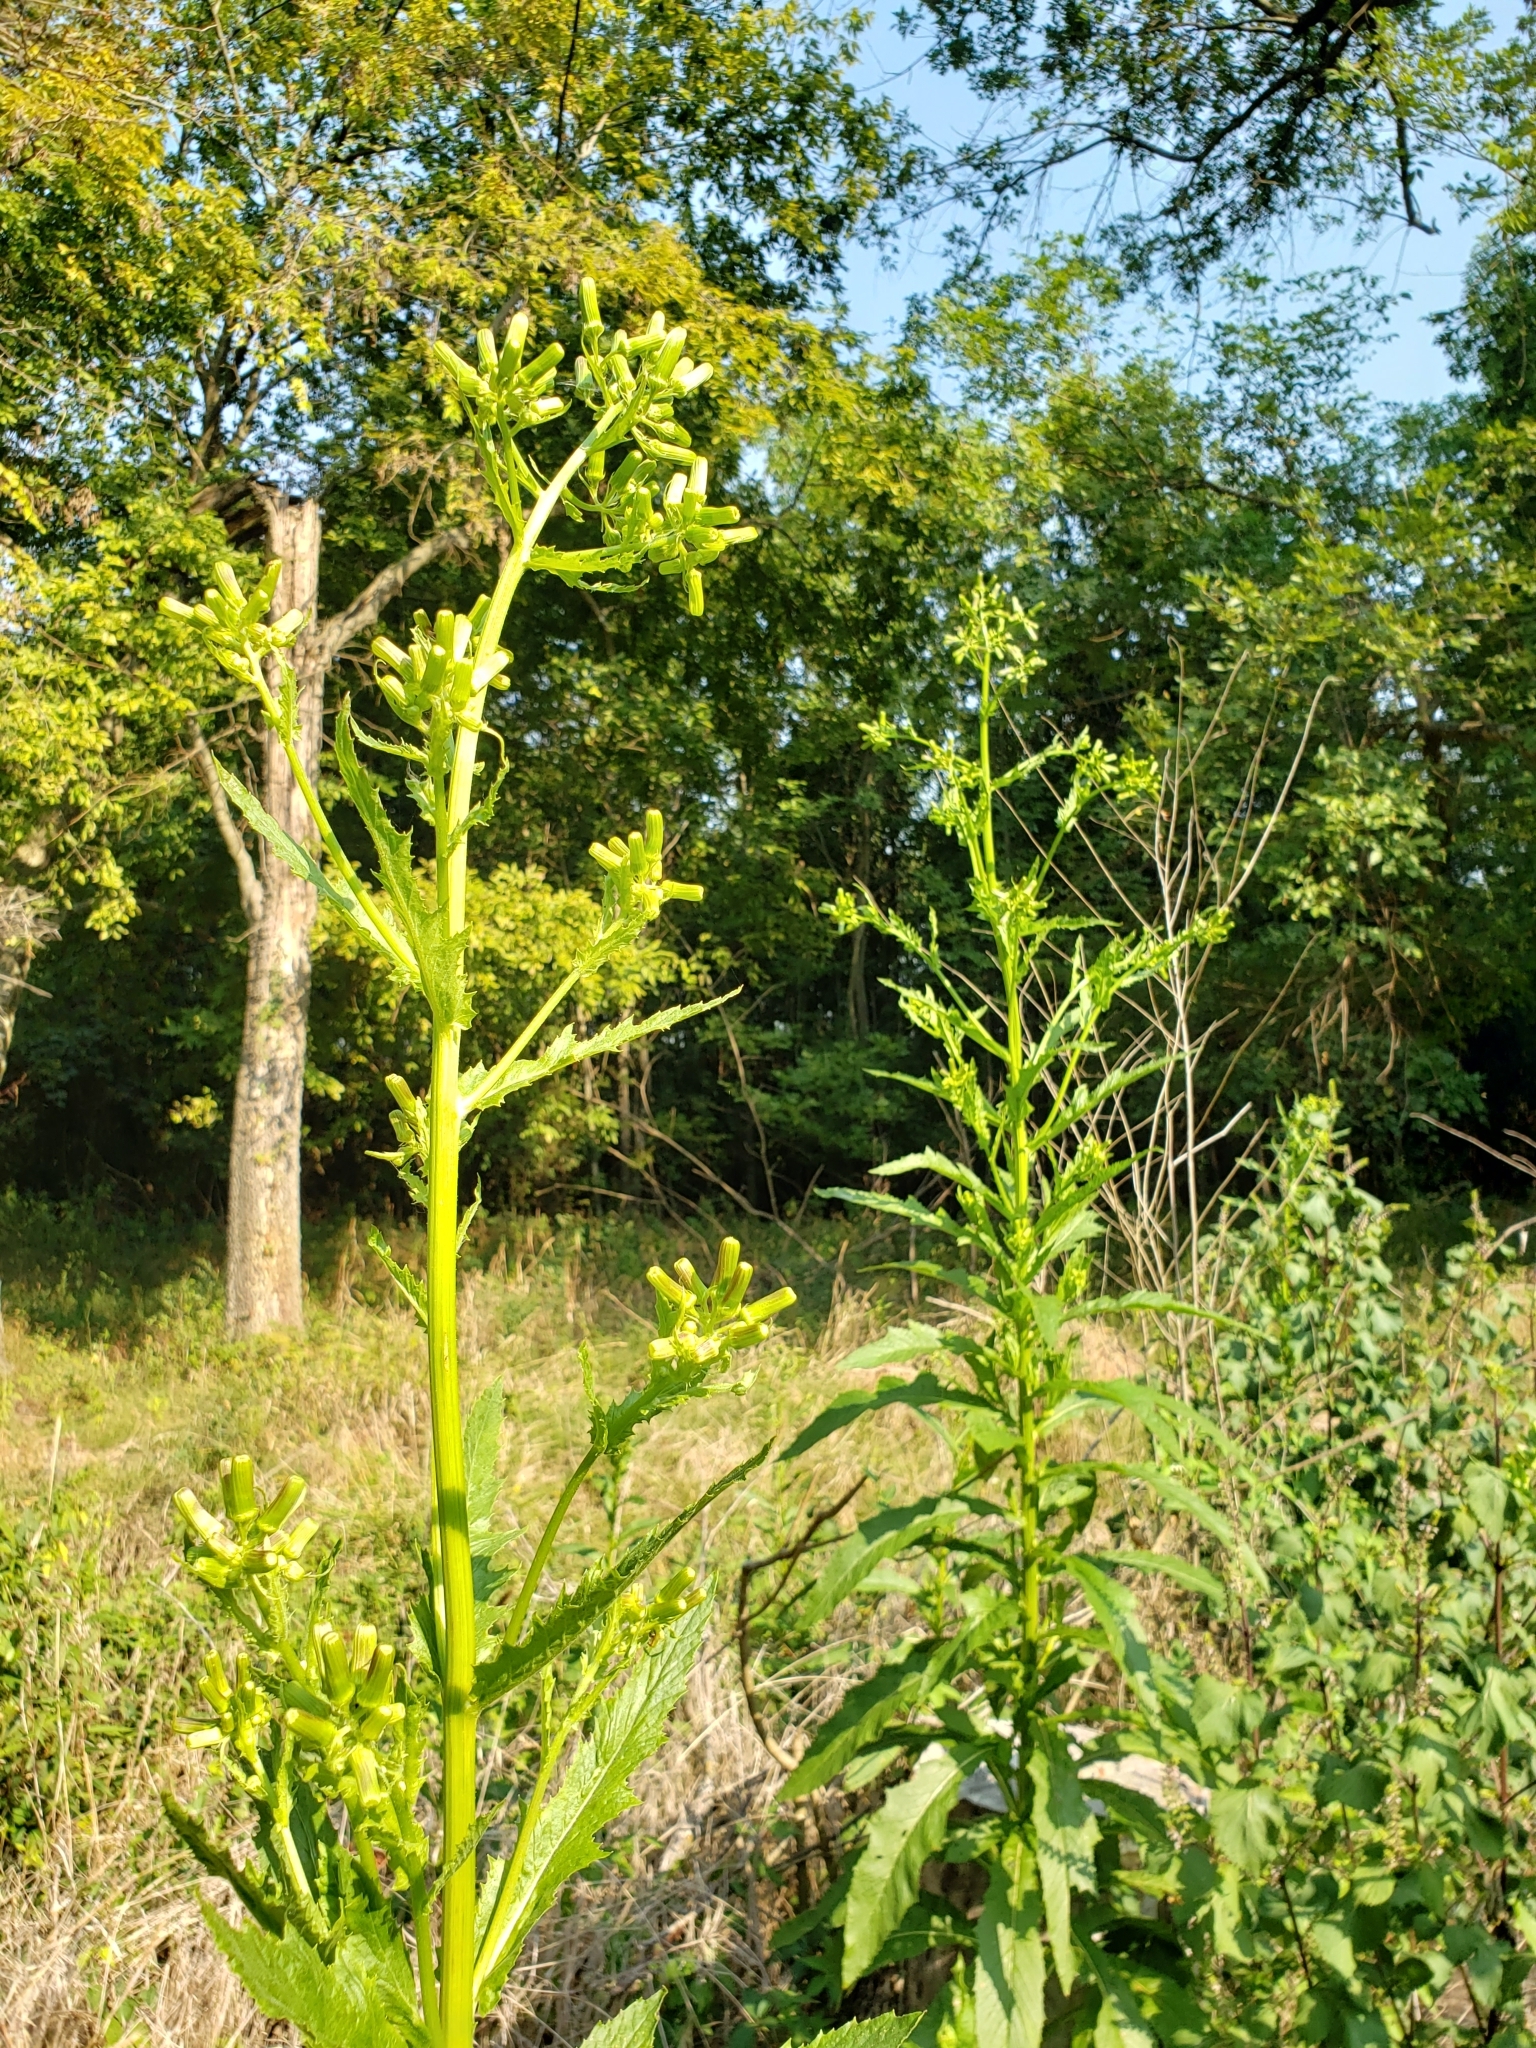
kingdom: Plantae
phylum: Tracheophyta
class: Magnoliopsida
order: Asterales
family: Asteraceae
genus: Erechtites
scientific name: Erechtites hieraciifolius
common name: American burnweed
